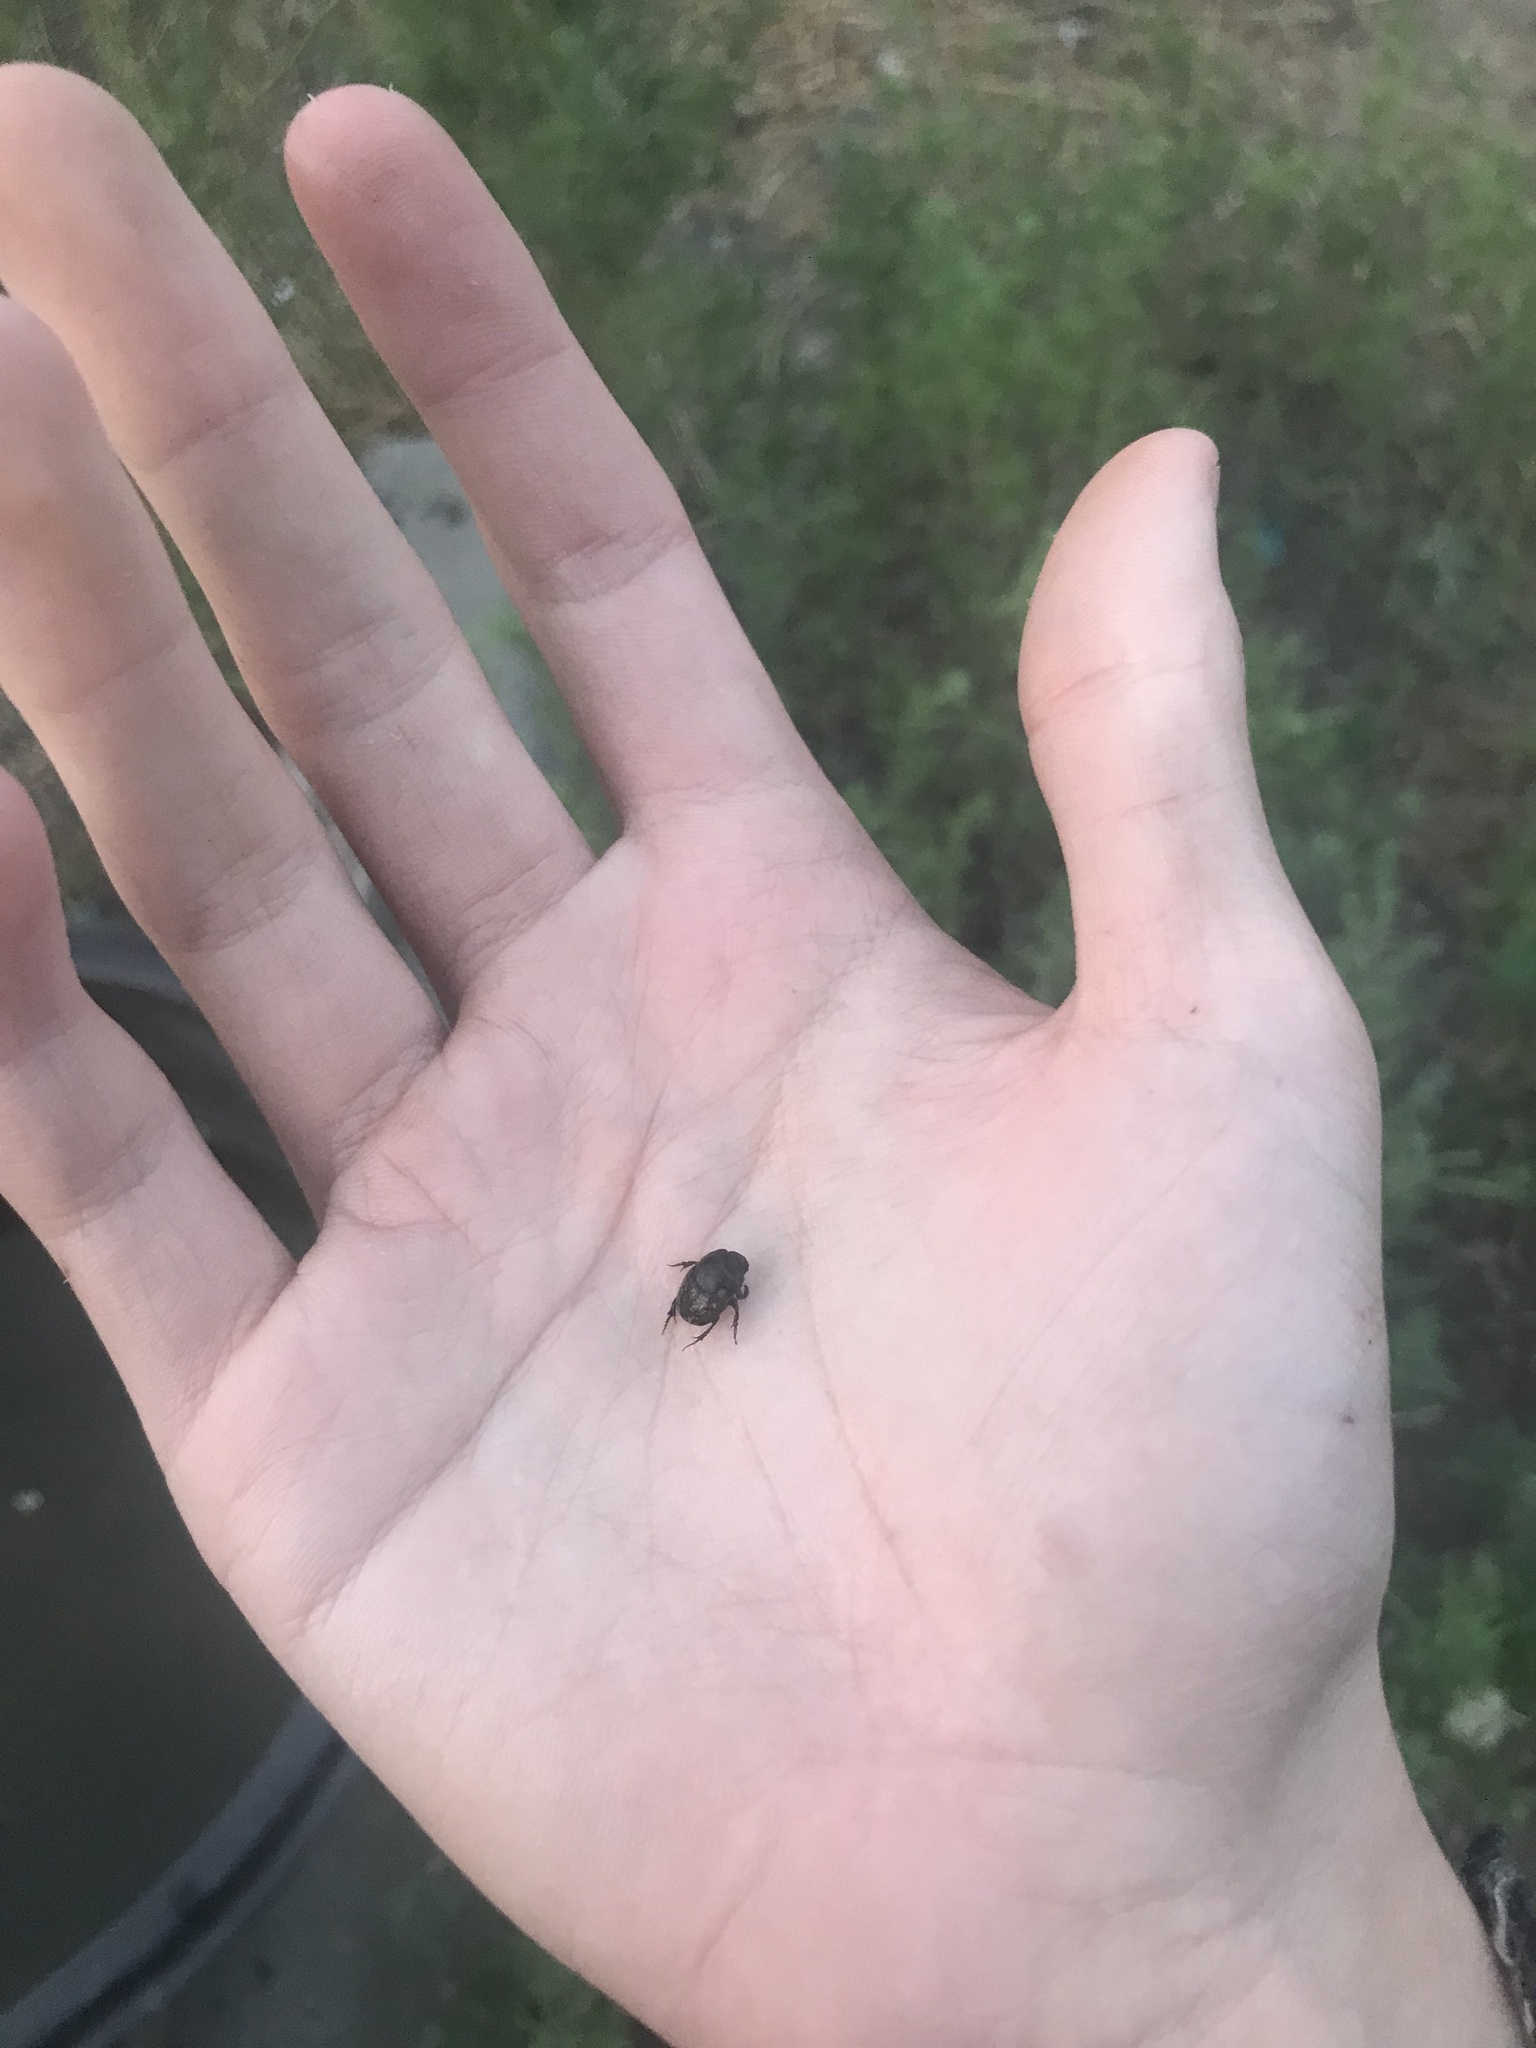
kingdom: Animalia
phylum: Arthropoda
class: Insecta
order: Coleoptera
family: Scarabaeidae
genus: Onthophagus
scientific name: Onthophagus nuchicornis
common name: Mottled dung beetle
